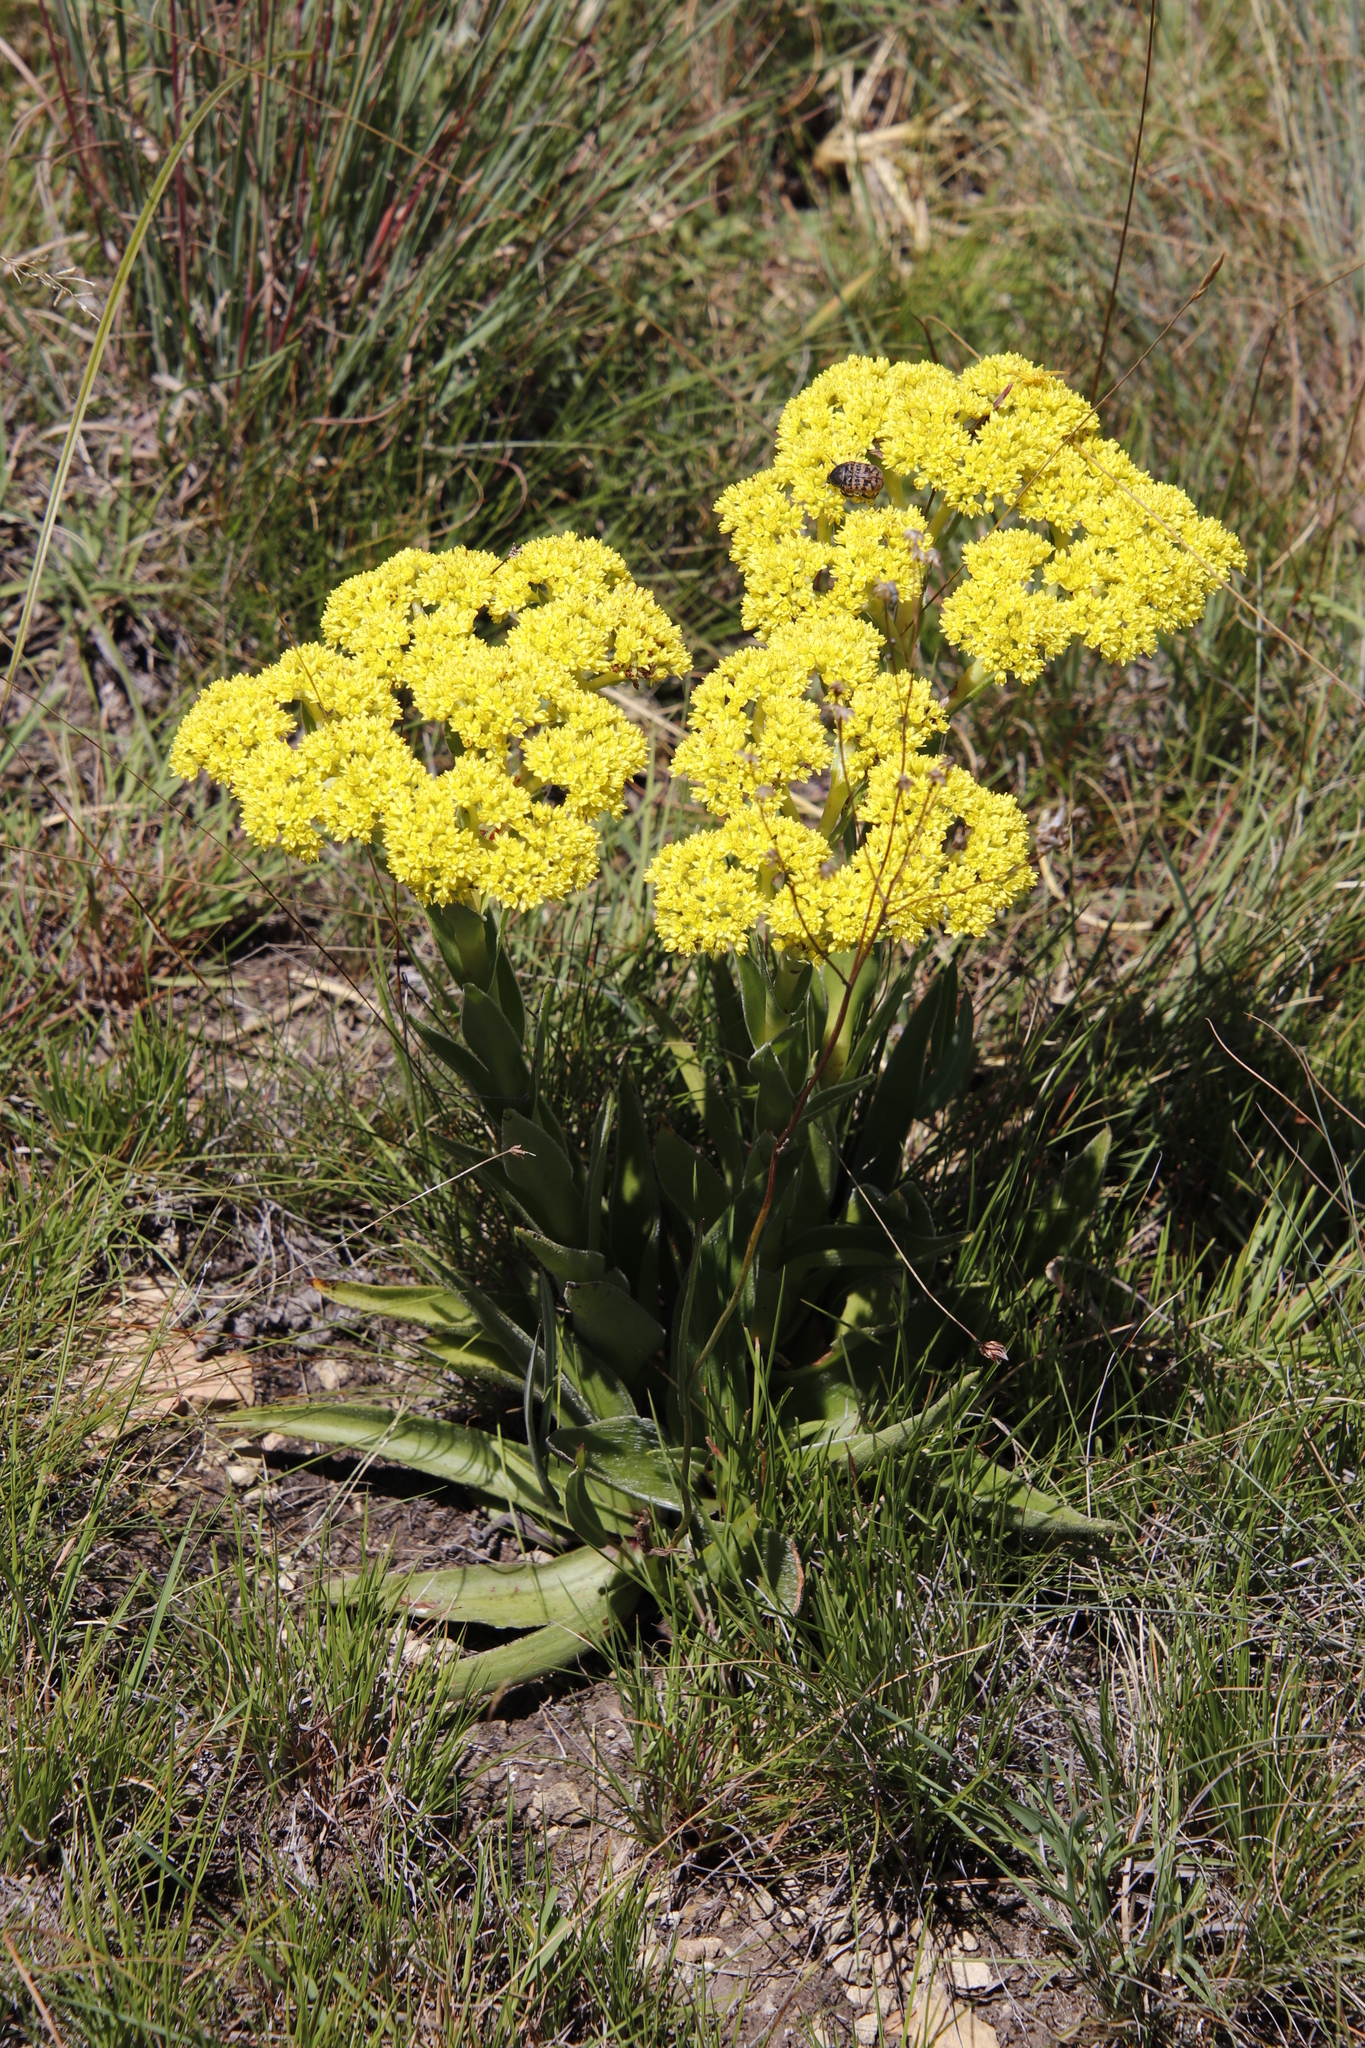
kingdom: Plantae
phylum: Tracheophyta
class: Magnoliopsida
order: Saxifragales
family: Crassulaceae
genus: Crassula
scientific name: Crassula vaginata
